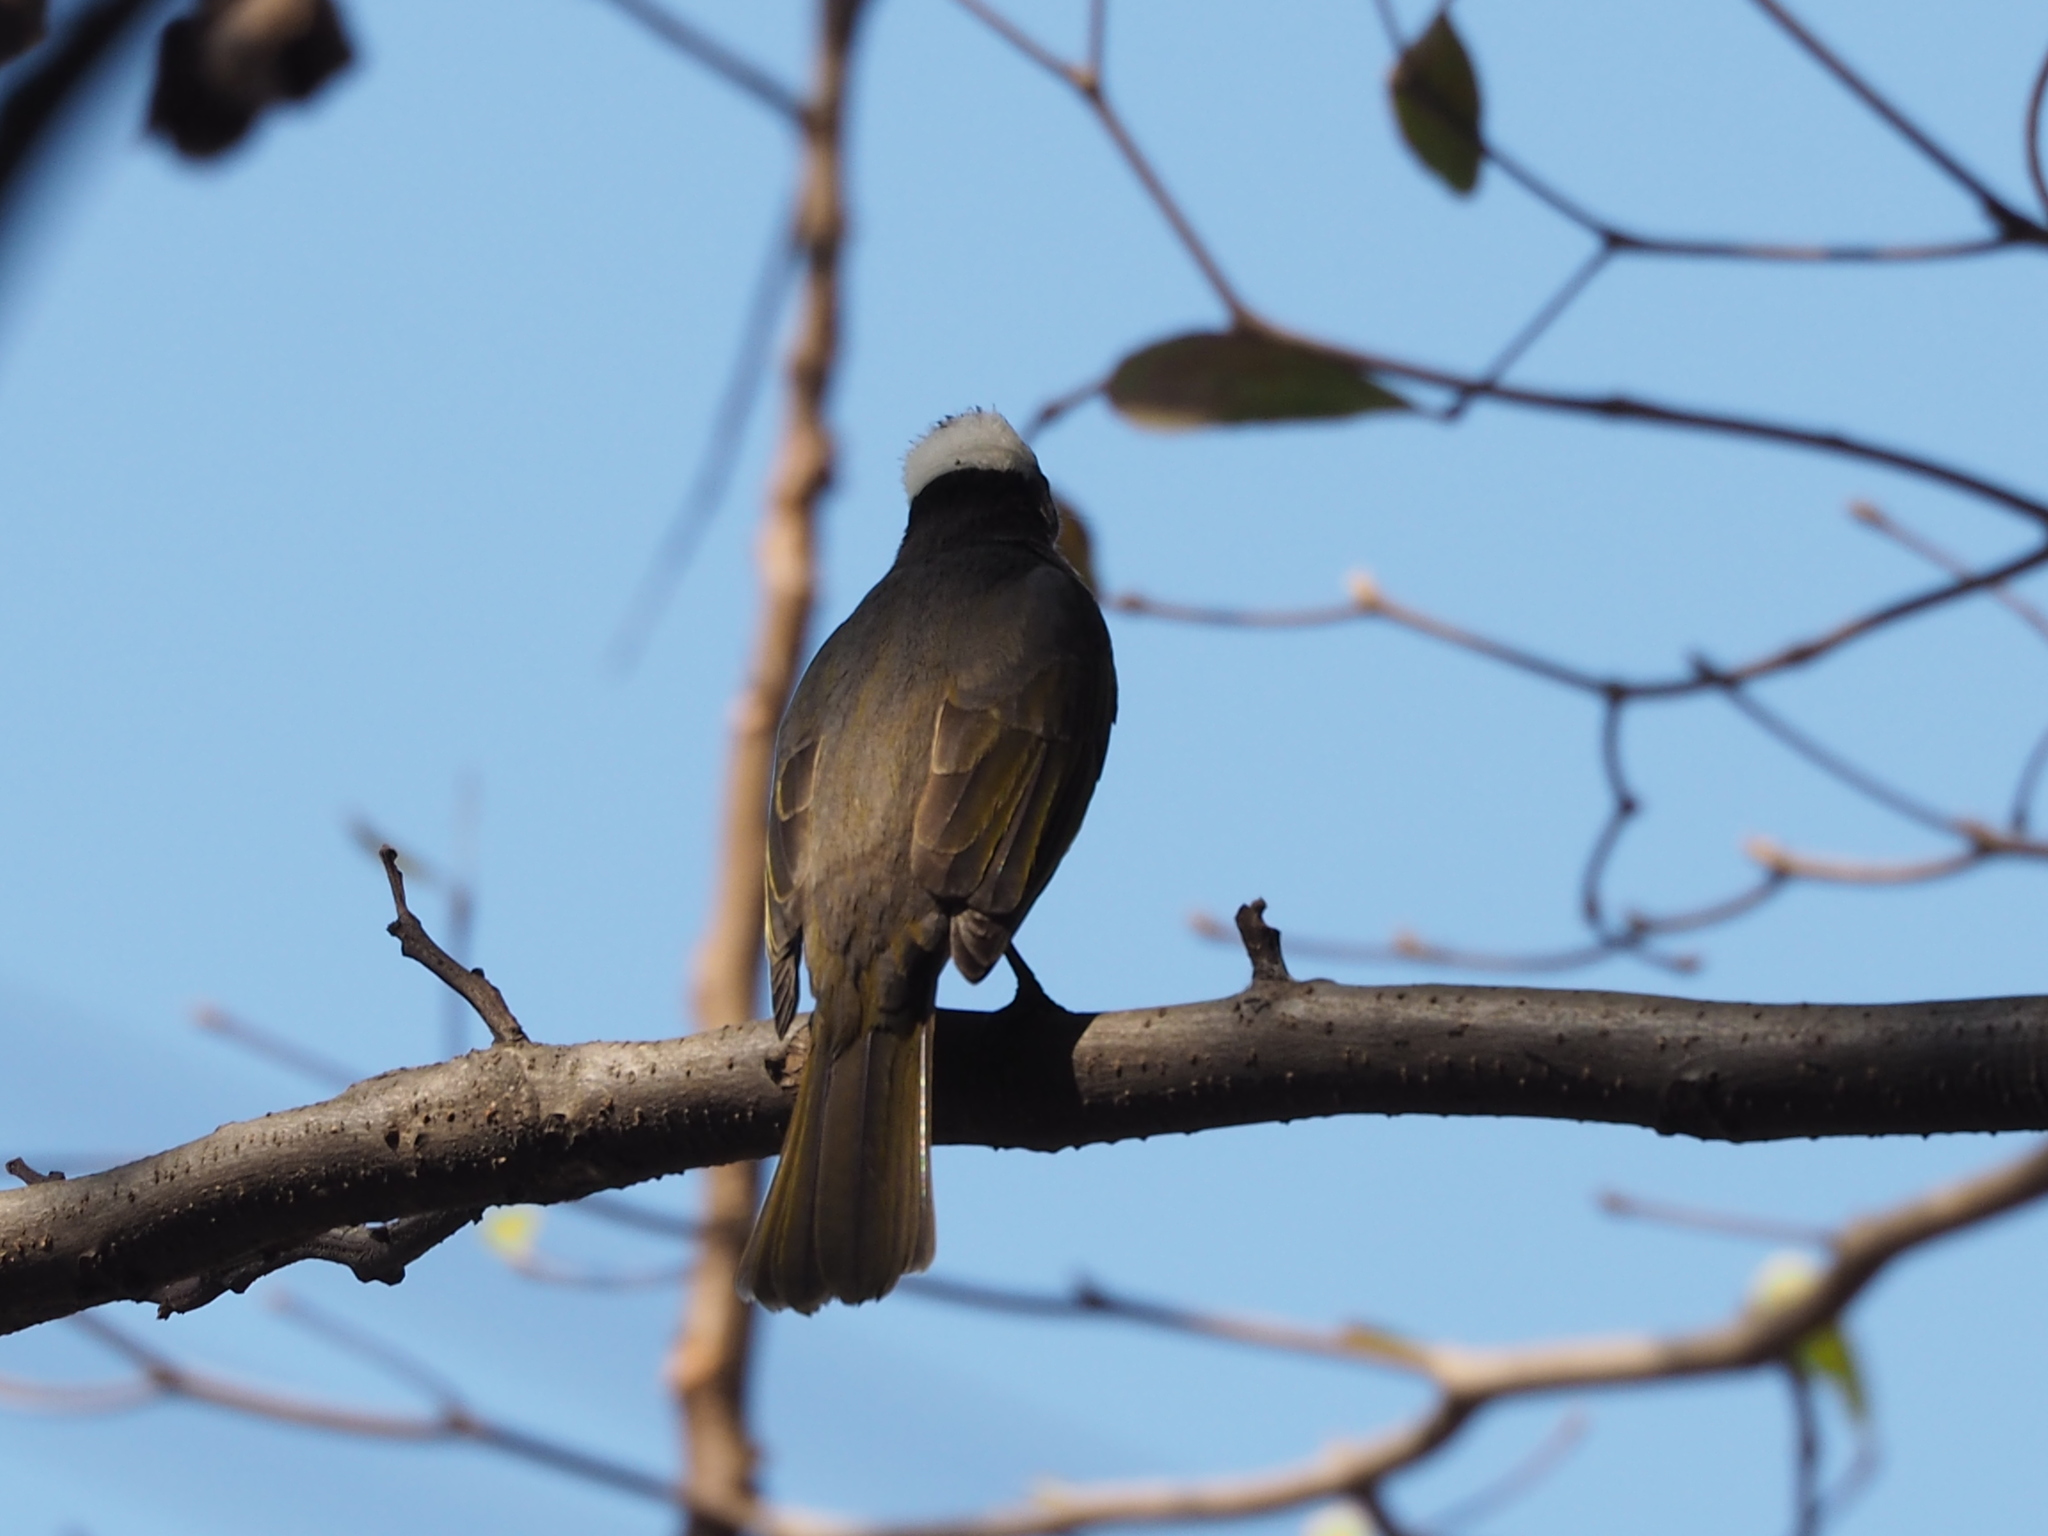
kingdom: Animalia
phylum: Chordata
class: Aves
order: Passeriformes
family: Pycnonotidae
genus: Pycnonotus
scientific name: Pycnonotus sinensis
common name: Light-vented bulbul
